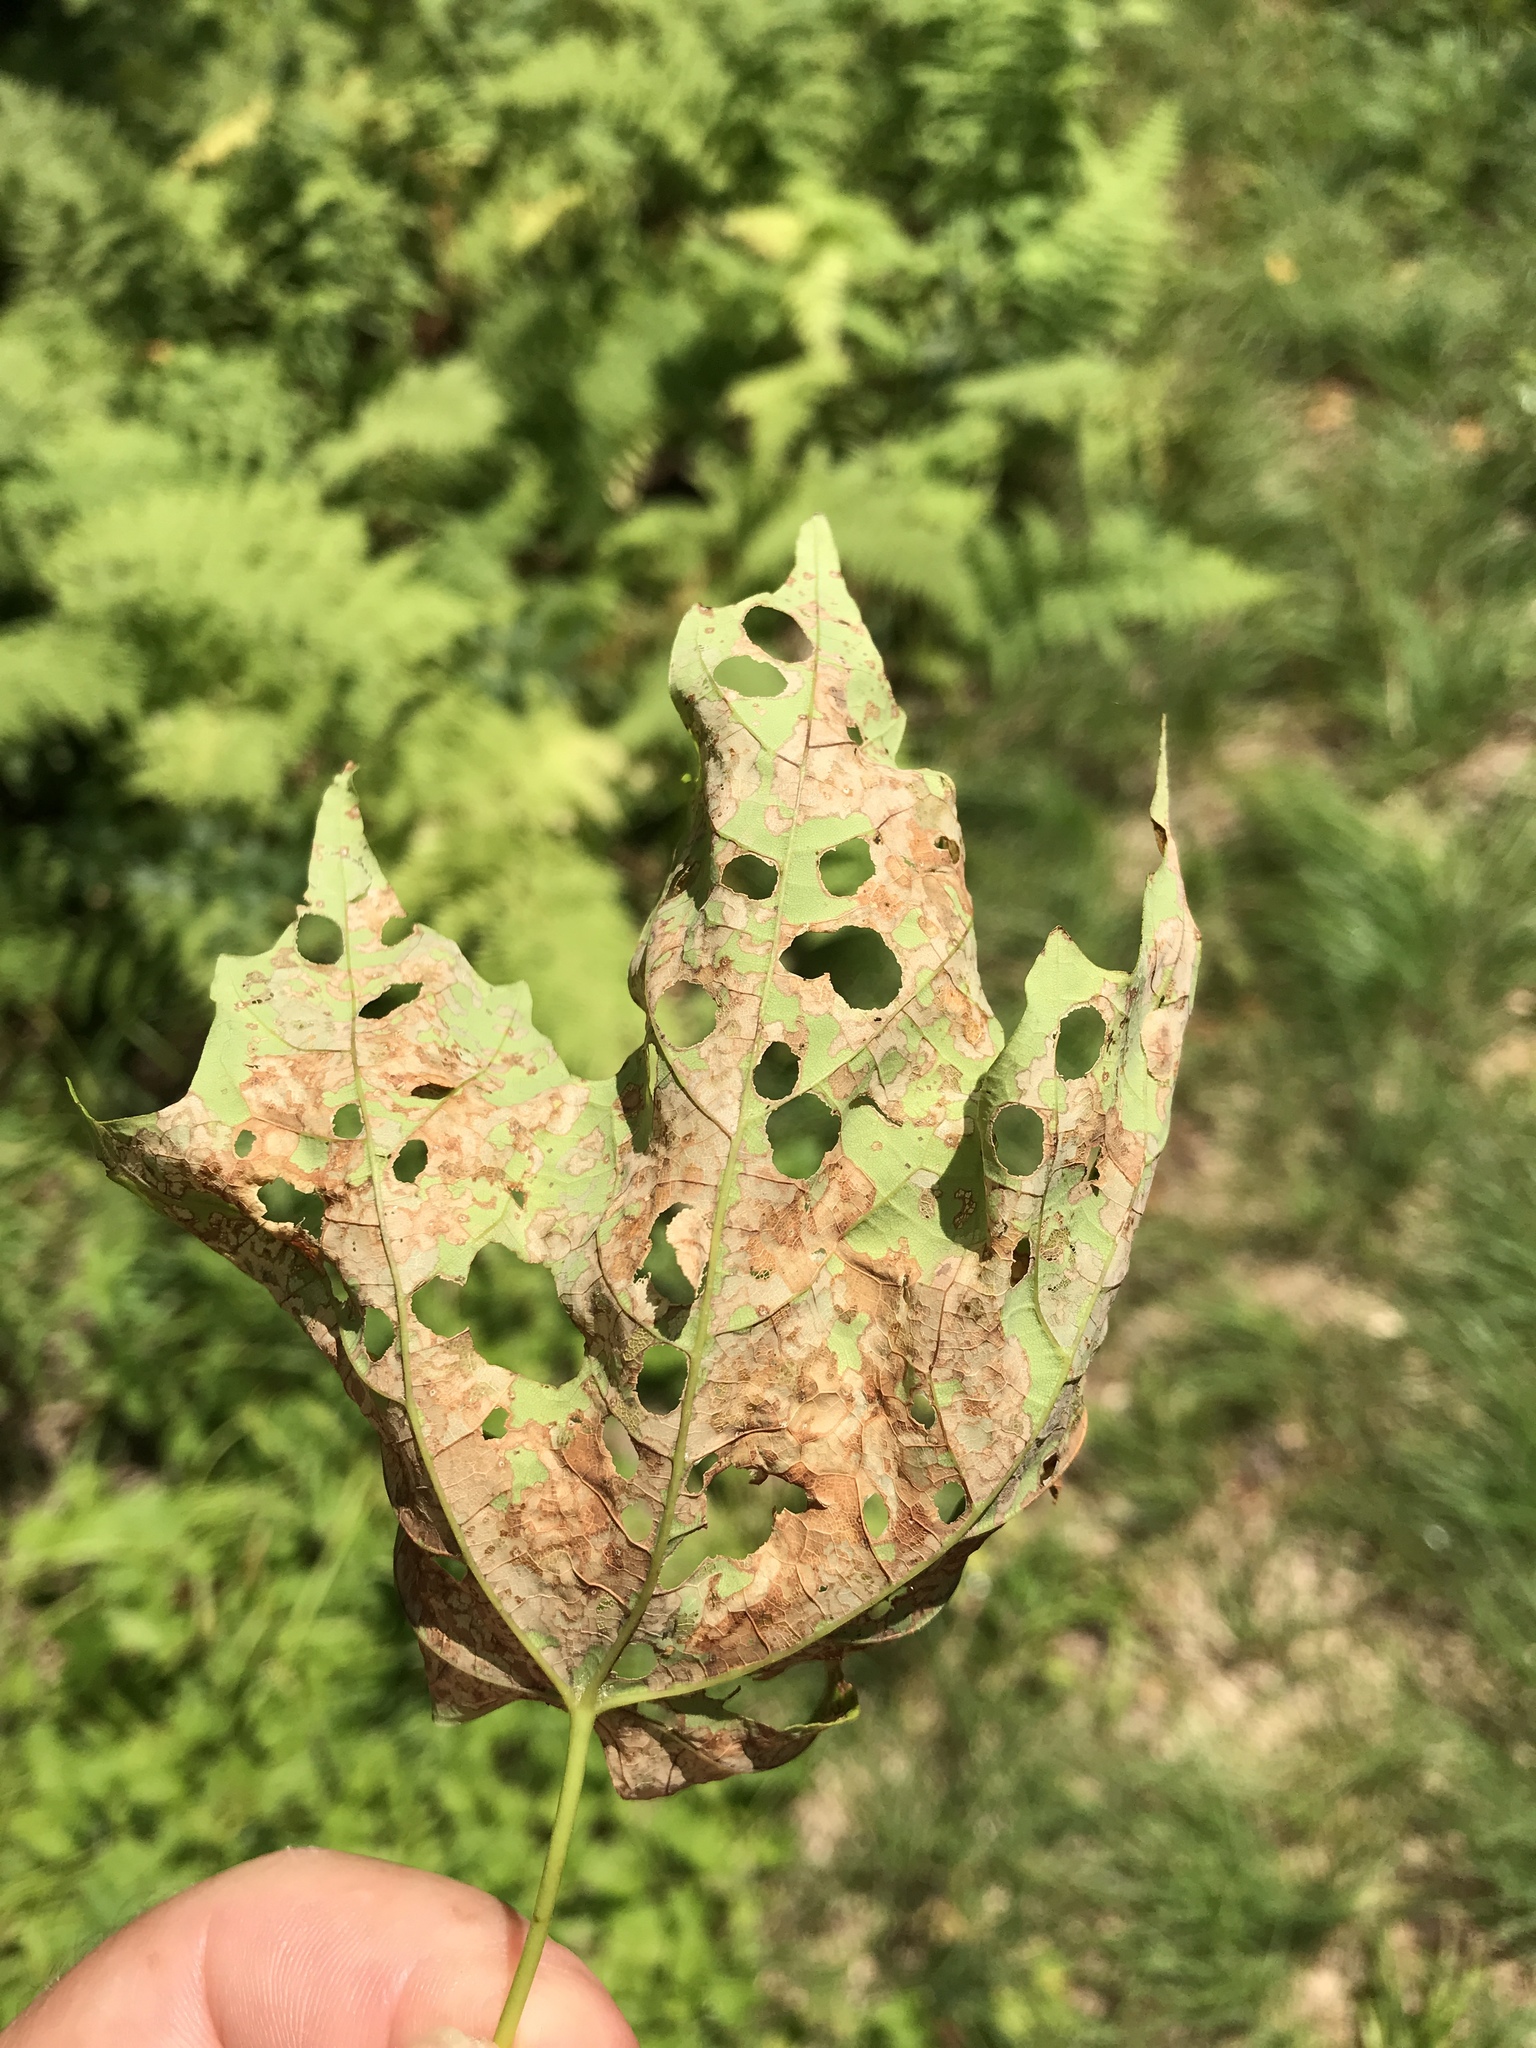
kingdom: Animalia
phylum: Arthropoda
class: Insecta
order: Lepidoptera
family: Incurvariidae
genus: Paraclemensia
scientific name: Paraclemensia acerifoliella
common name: Maple leafcutter
